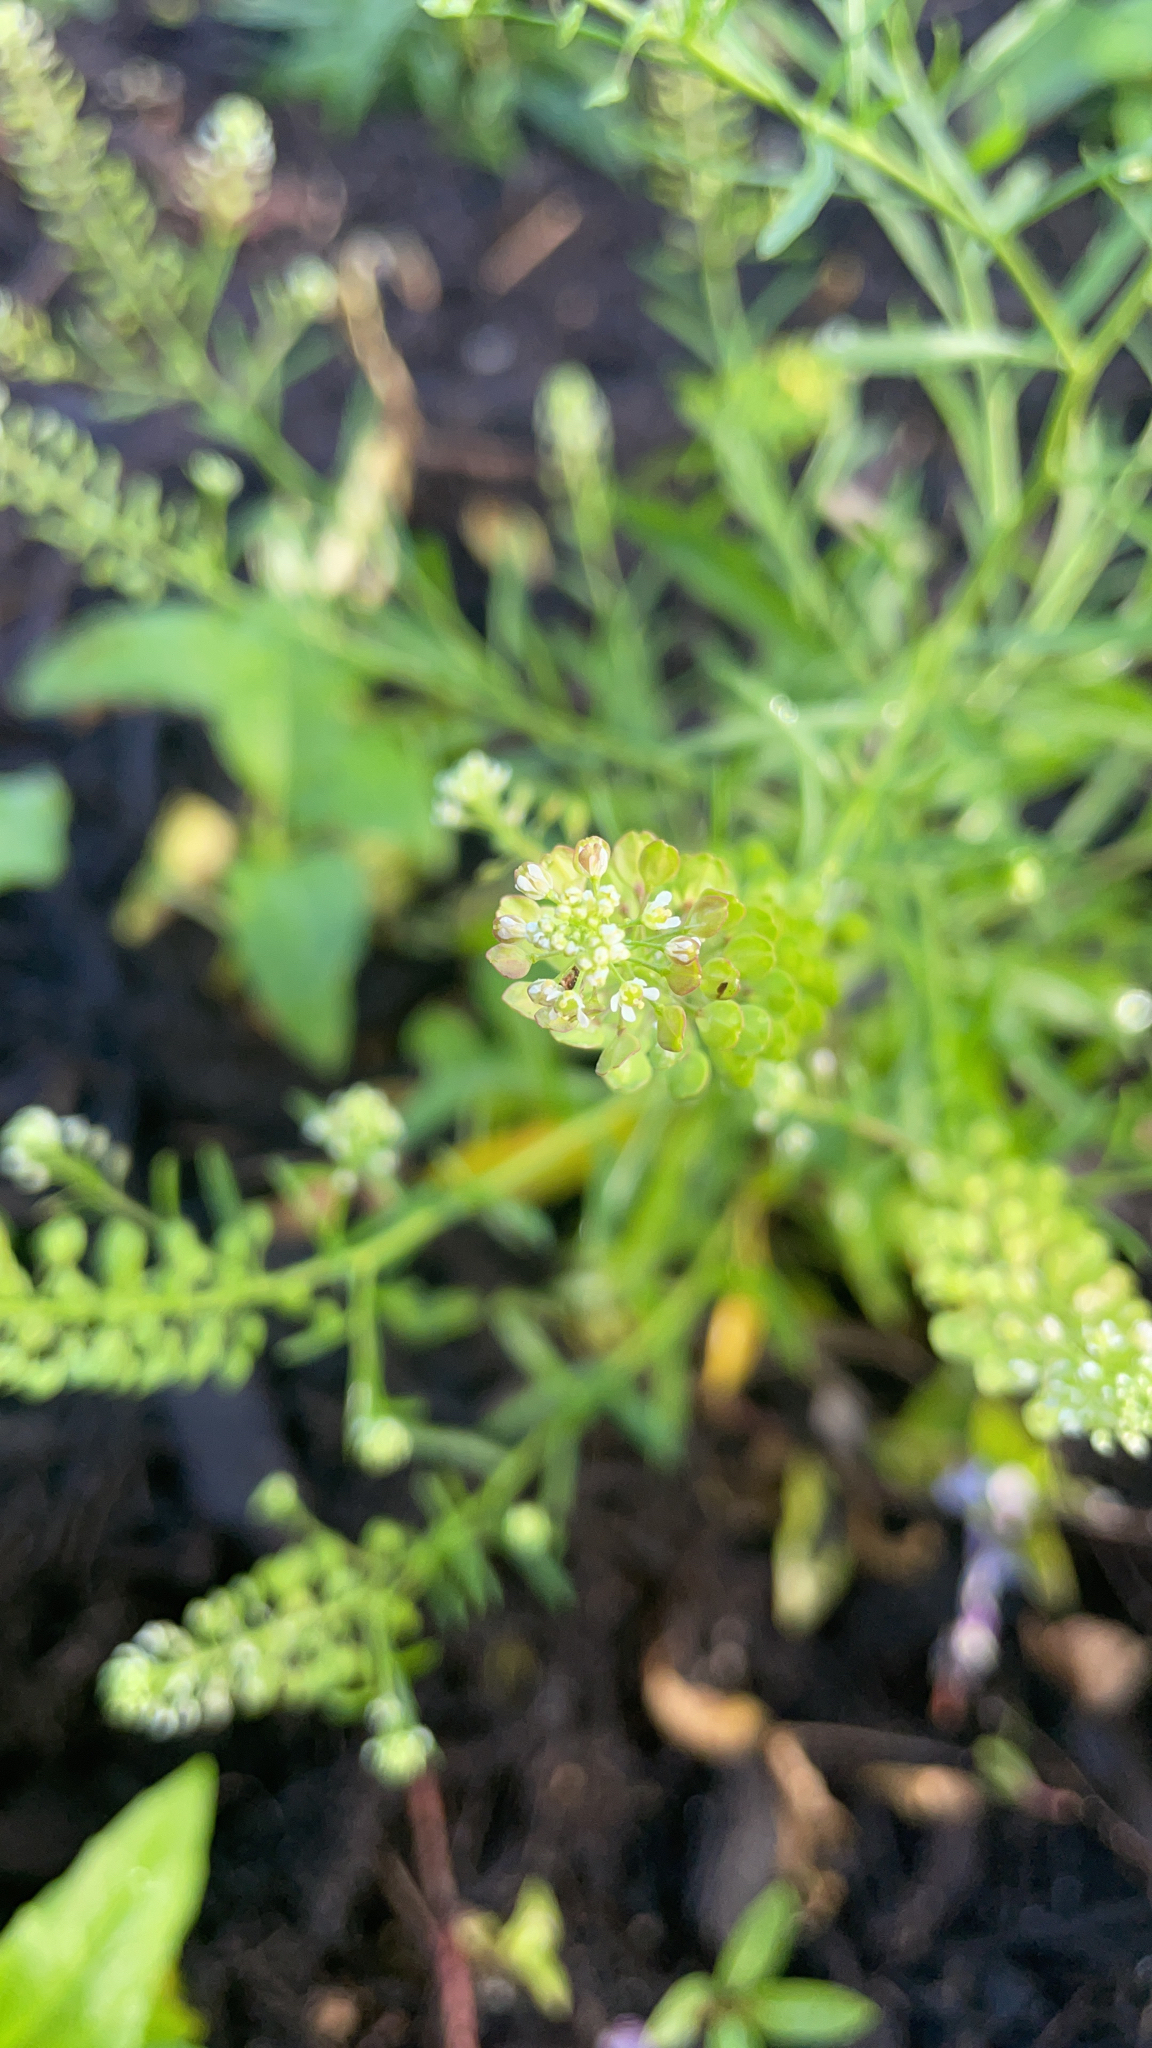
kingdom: Plantae
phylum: Tracheophyta
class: Magnoliopsida
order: Brassicales
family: Brassicaceae
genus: Lepidium
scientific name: Lepidium virginicum
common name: Least pepperwort
